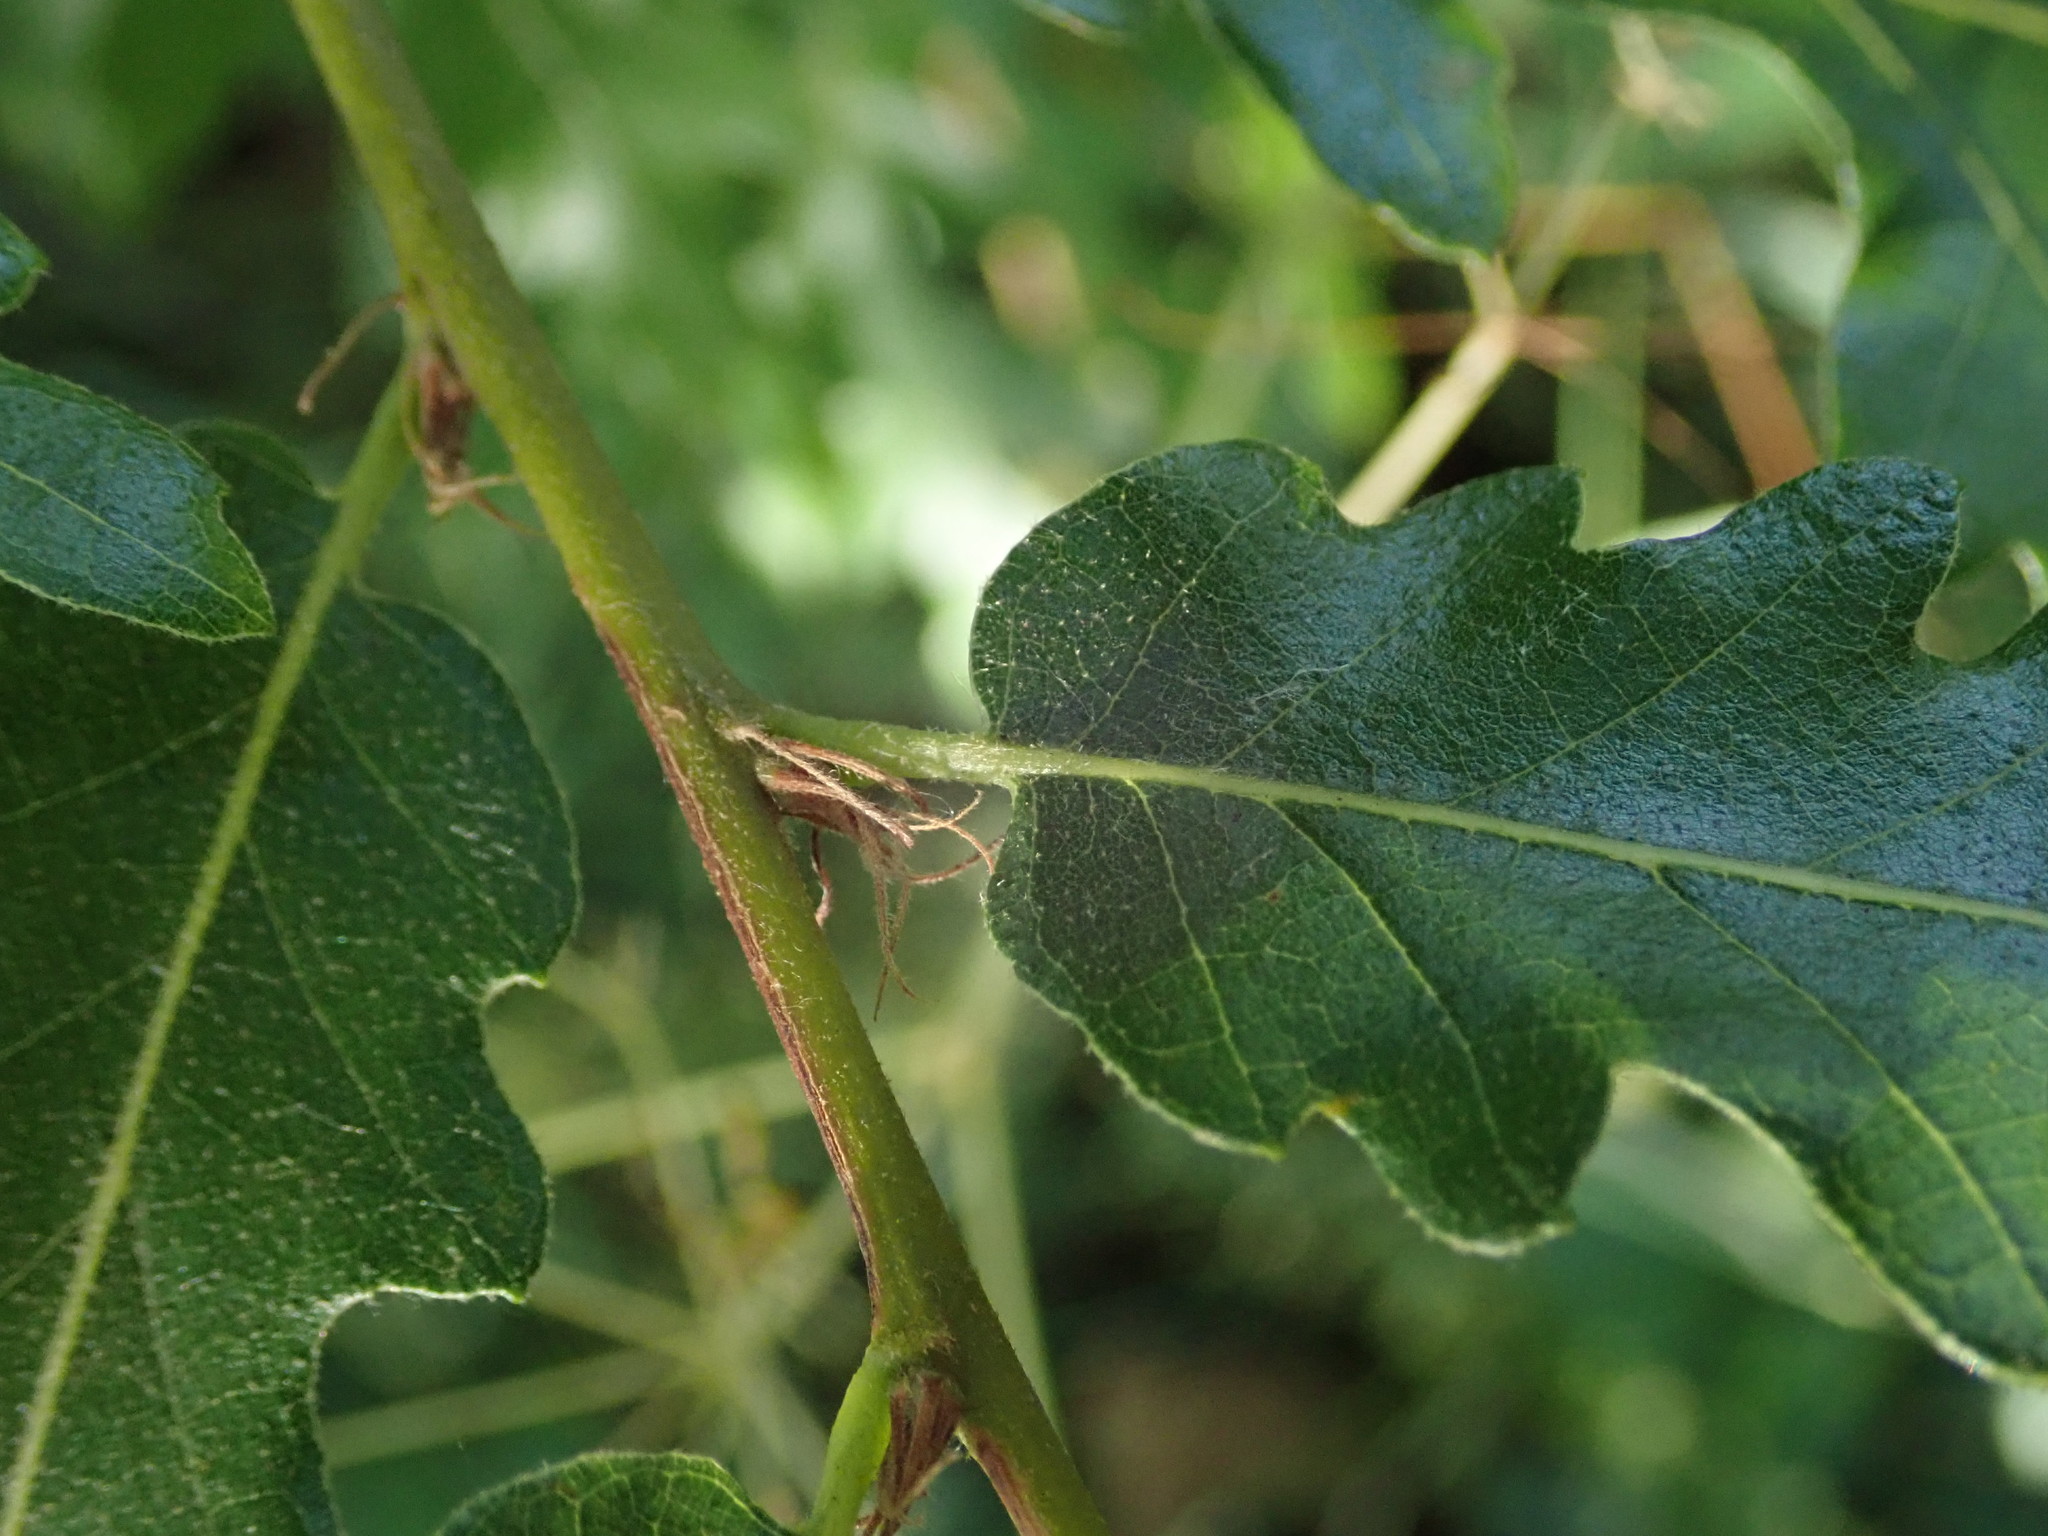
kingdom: Plantae
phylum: Tracheophyta
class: Magnoliopsida
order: Fagales
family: Fagaceae
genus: Quercus
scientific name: Quercus cerris
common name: Turkey oak
